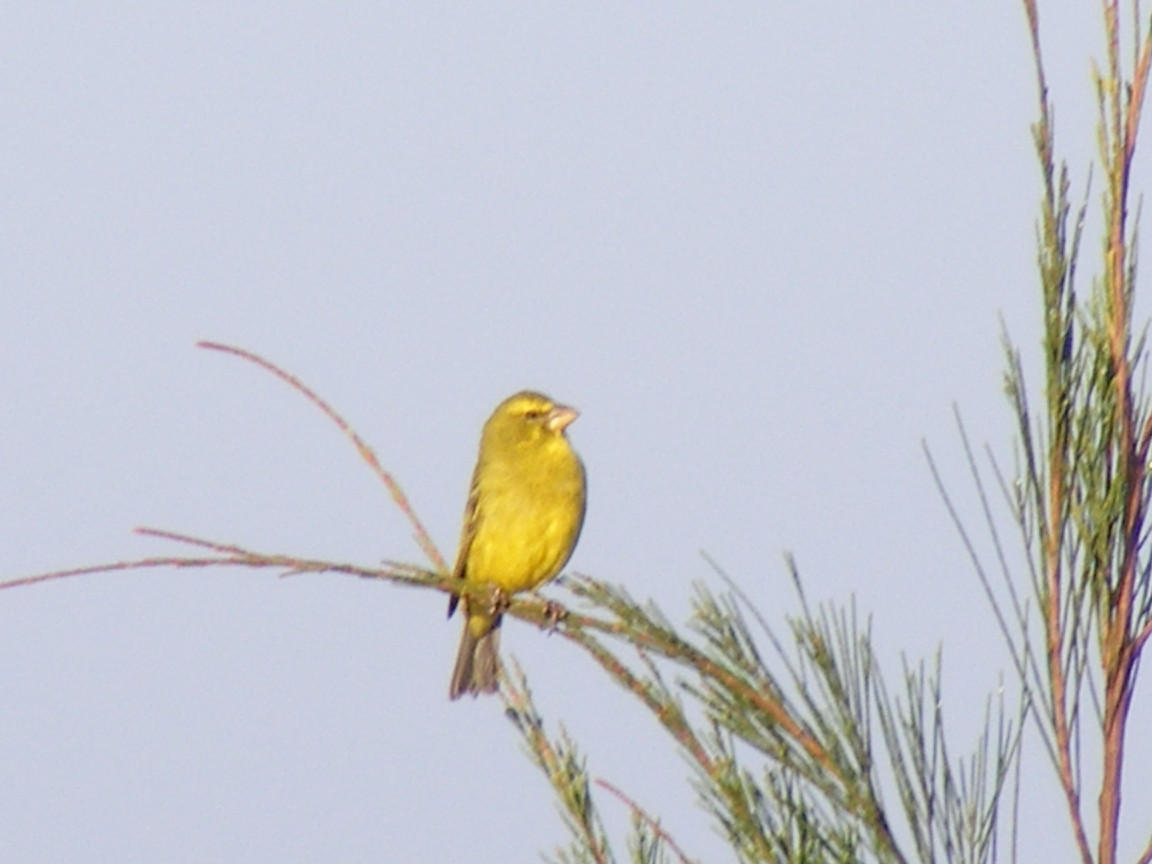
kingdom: Animalia
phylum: Chordata
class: Aves
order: Passeriformes
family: Fringillidae
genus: Crithagra
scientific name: Crithagra sulphurata
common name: Brimstone canary
